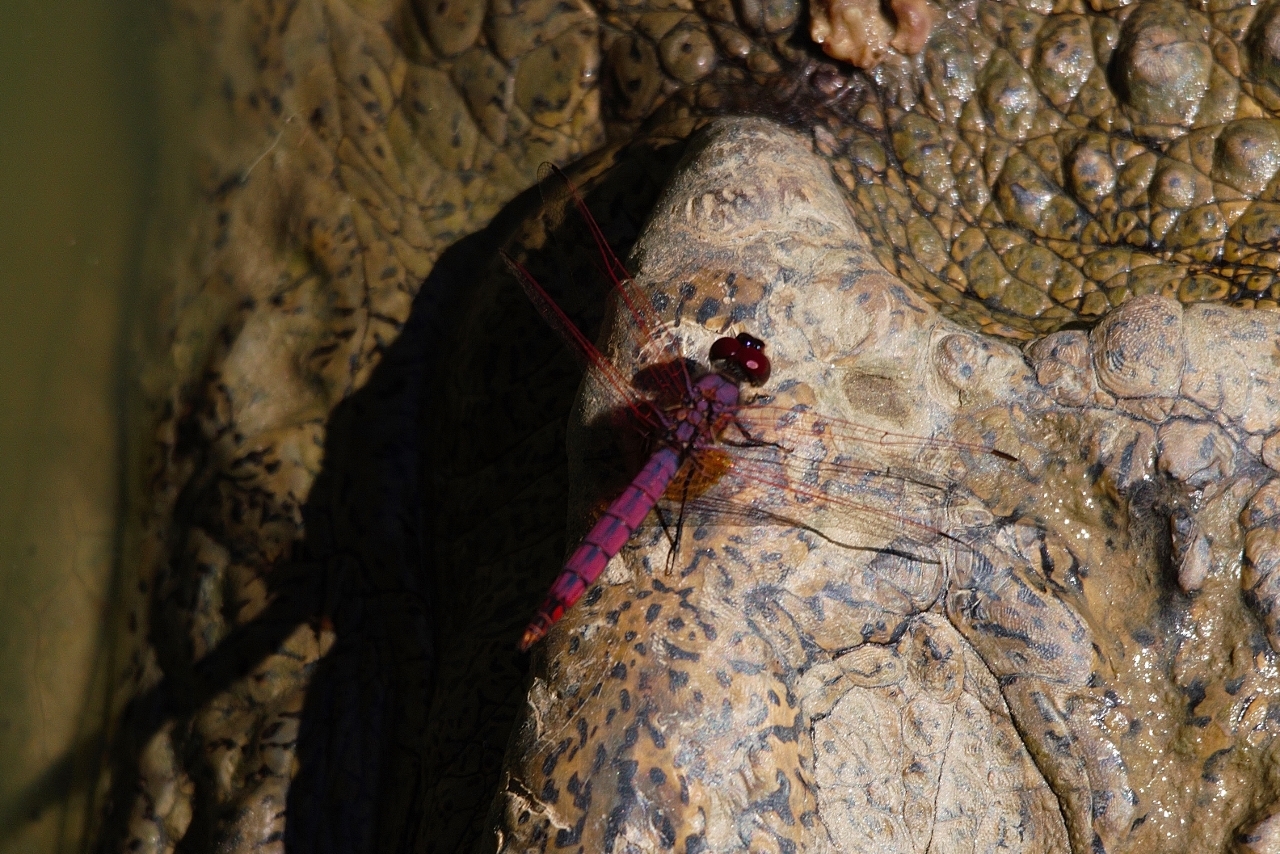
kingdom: Animalia
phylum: Arthropoda
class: Insecta
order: Odonata
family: Libellulidae
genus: Trithemis
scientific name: Trithemis annulata
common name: Violet dropwing
